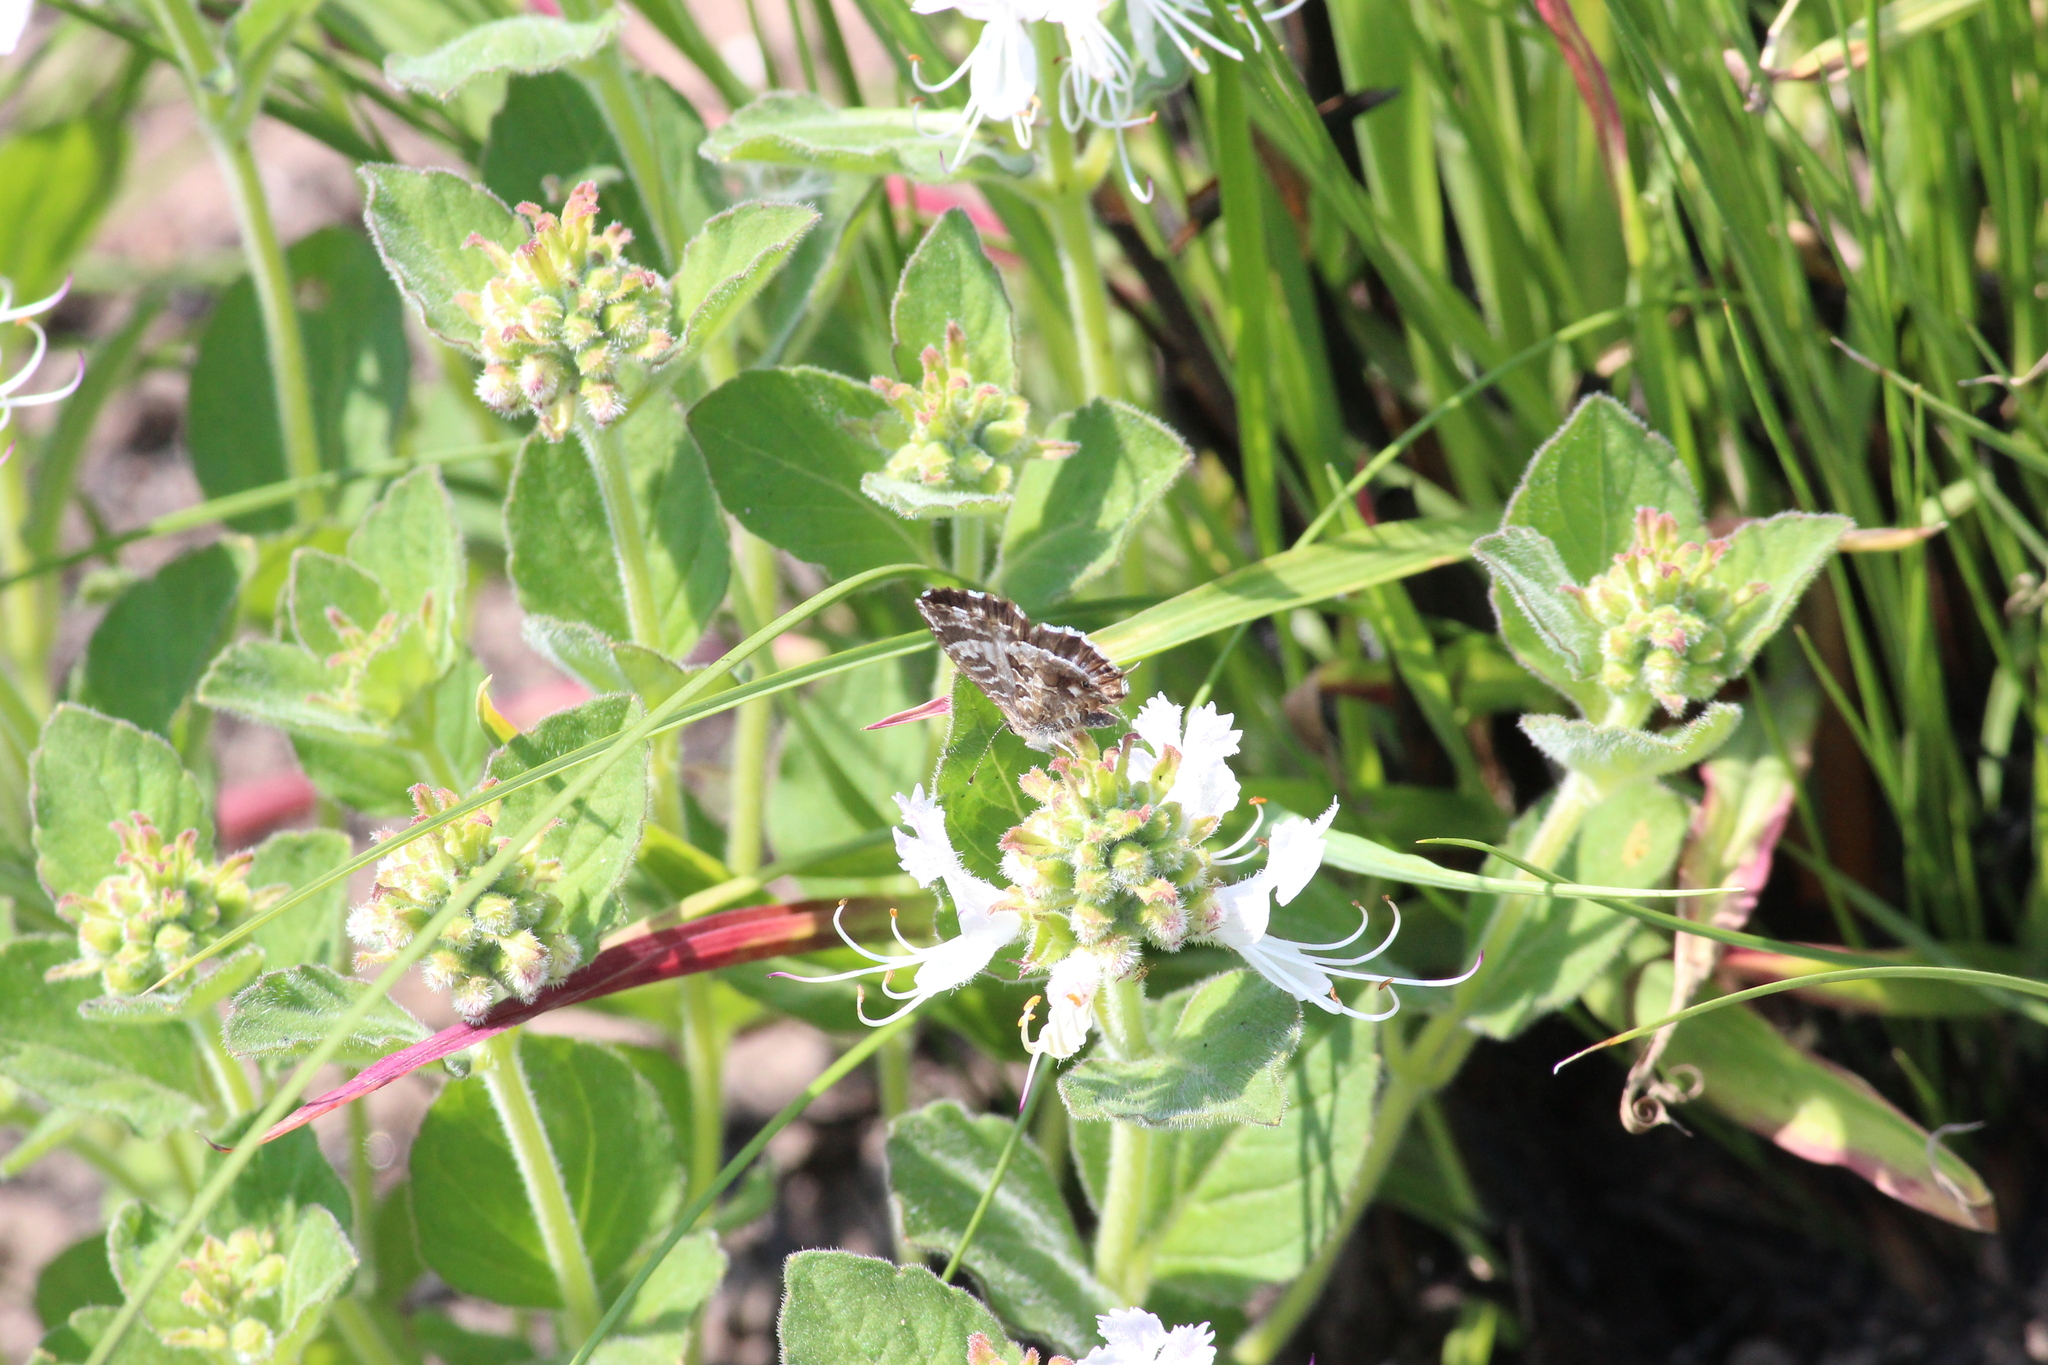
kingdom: Animalia
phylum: Arthropoda
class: Insecta
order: Lepidoptera
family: Lycaenidae
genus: Cacyreus
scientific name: Cacyreus lingeus
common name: Bush bronze
